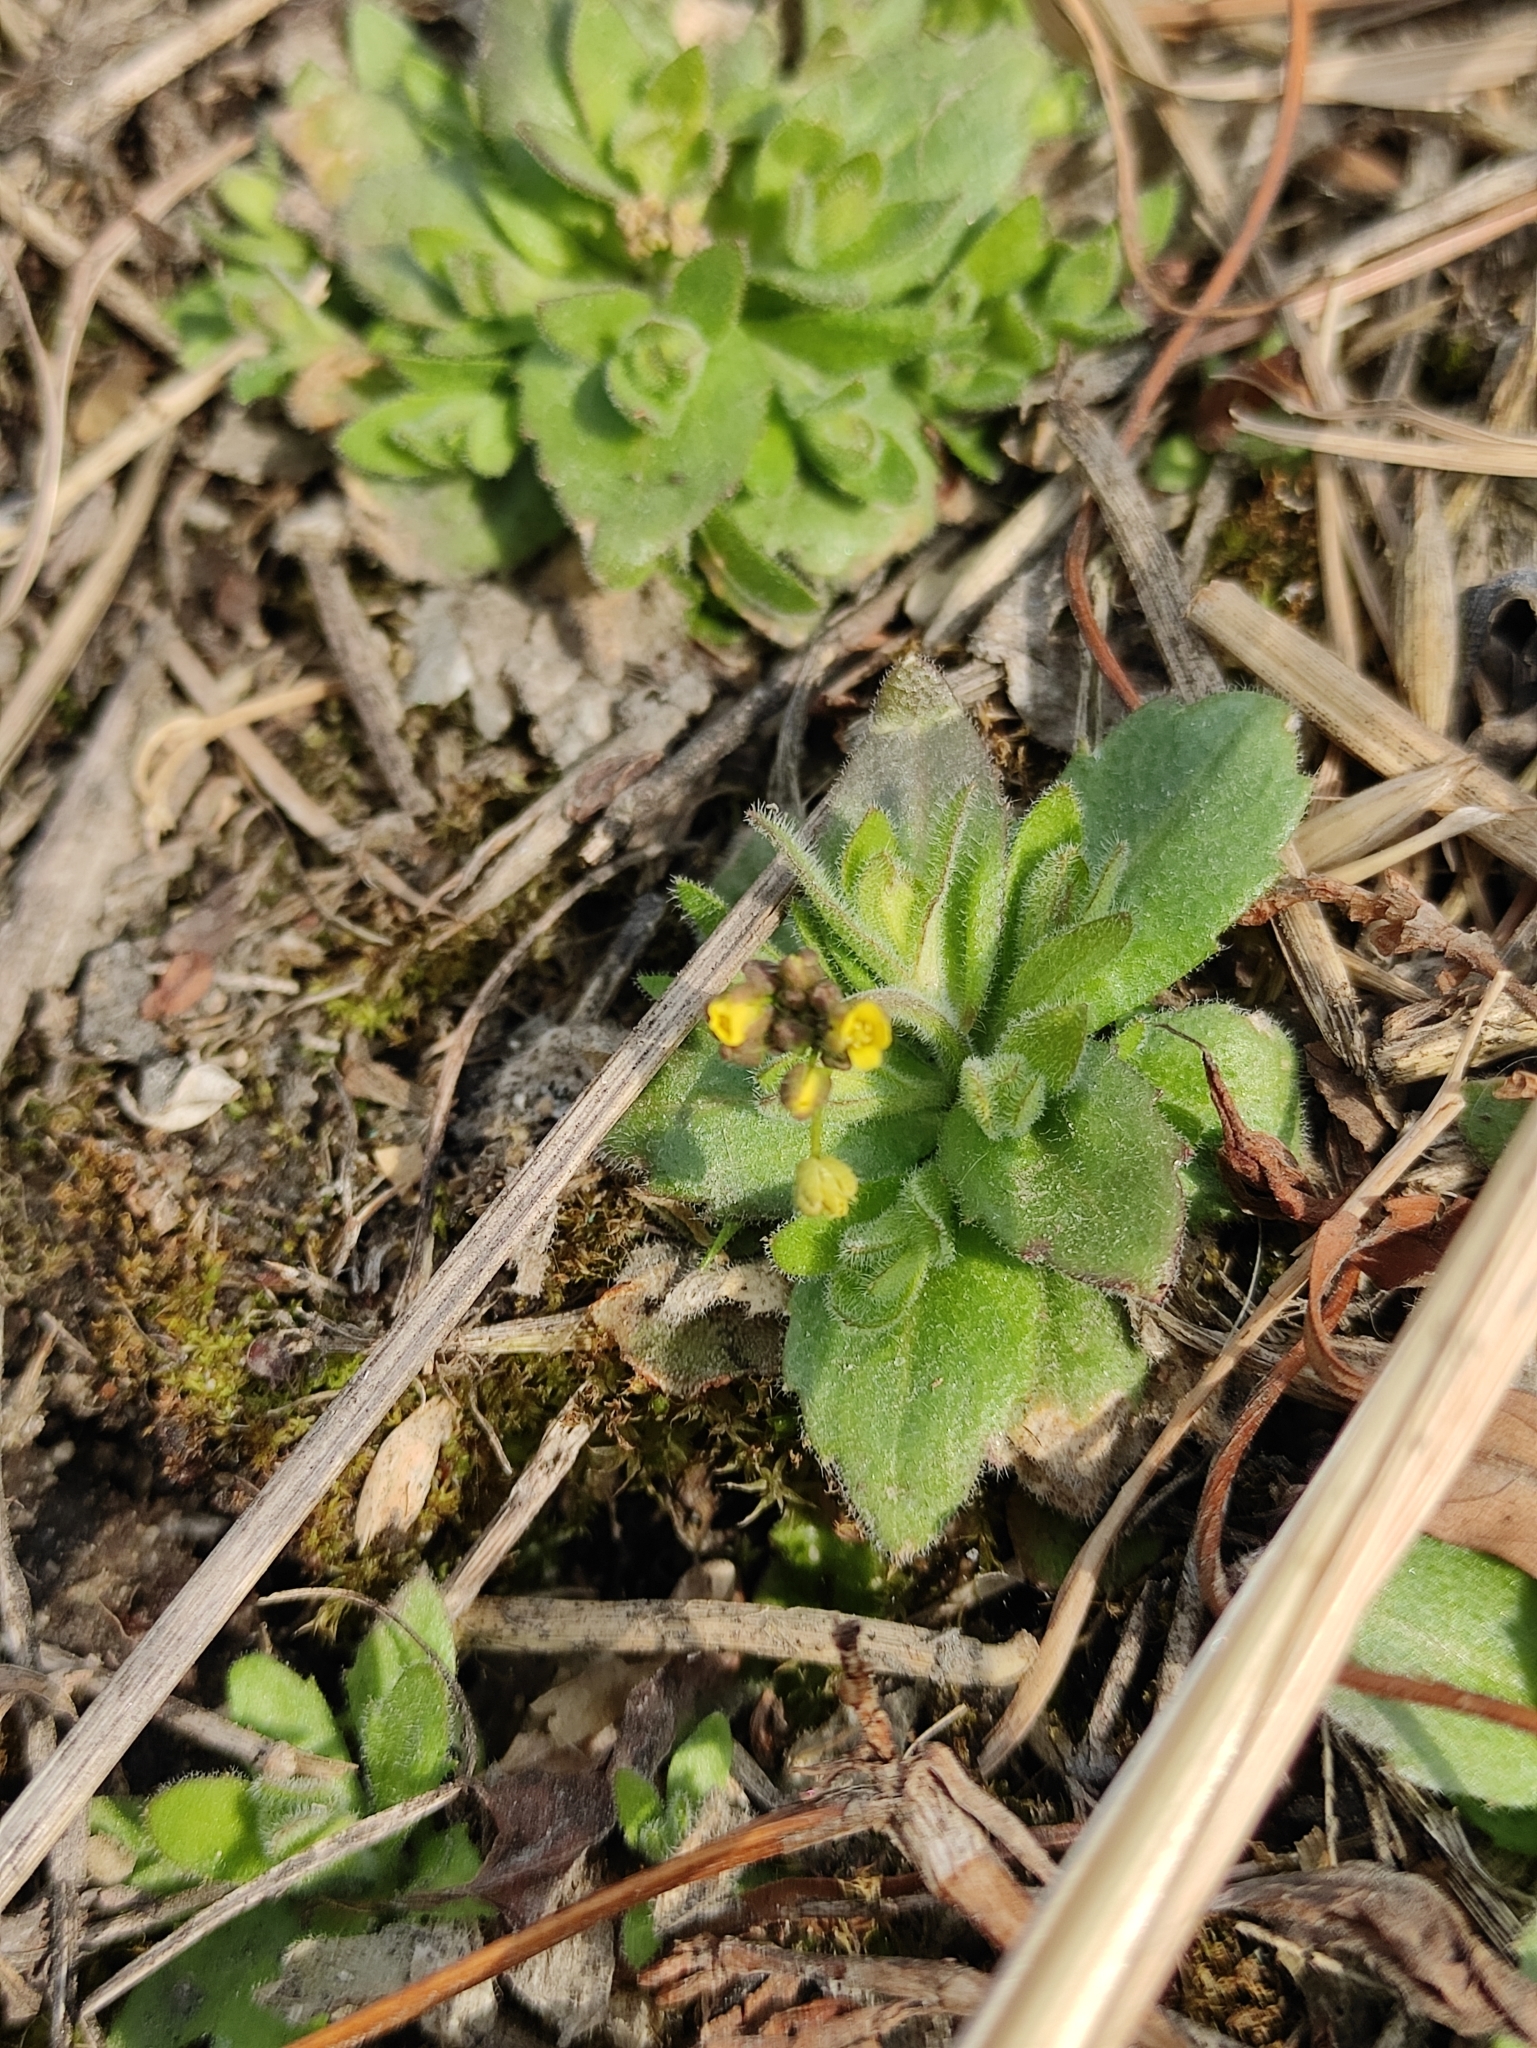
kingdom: Plantae
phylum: Tracheophyta
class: Magnoliopsida
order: Brassicales
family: Brassicaceae
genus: Draba
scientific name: Draba nemorosa
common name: Wood whitlow-grass
